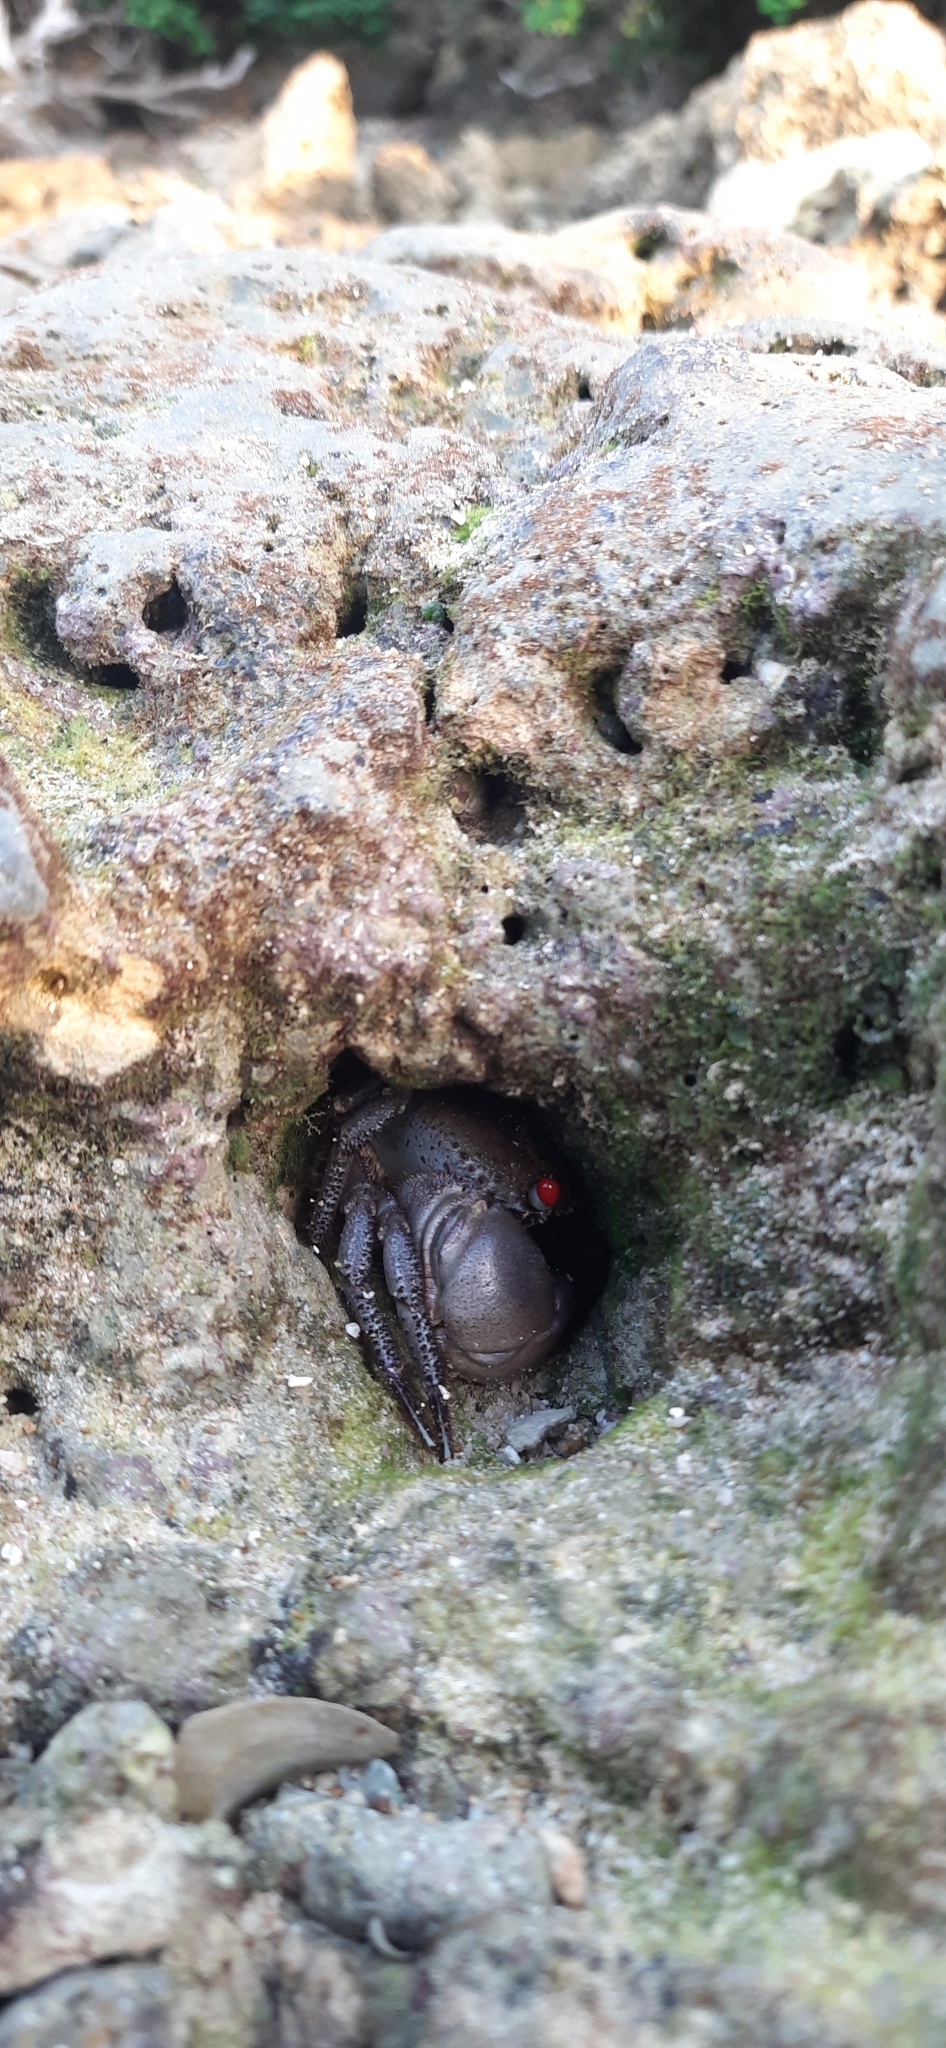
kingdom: Animalia
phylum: Arthropoda
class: Malacostraca
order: Decapoda
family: Eriphiidae
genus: Eriphia
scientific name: Eriphia ferox
